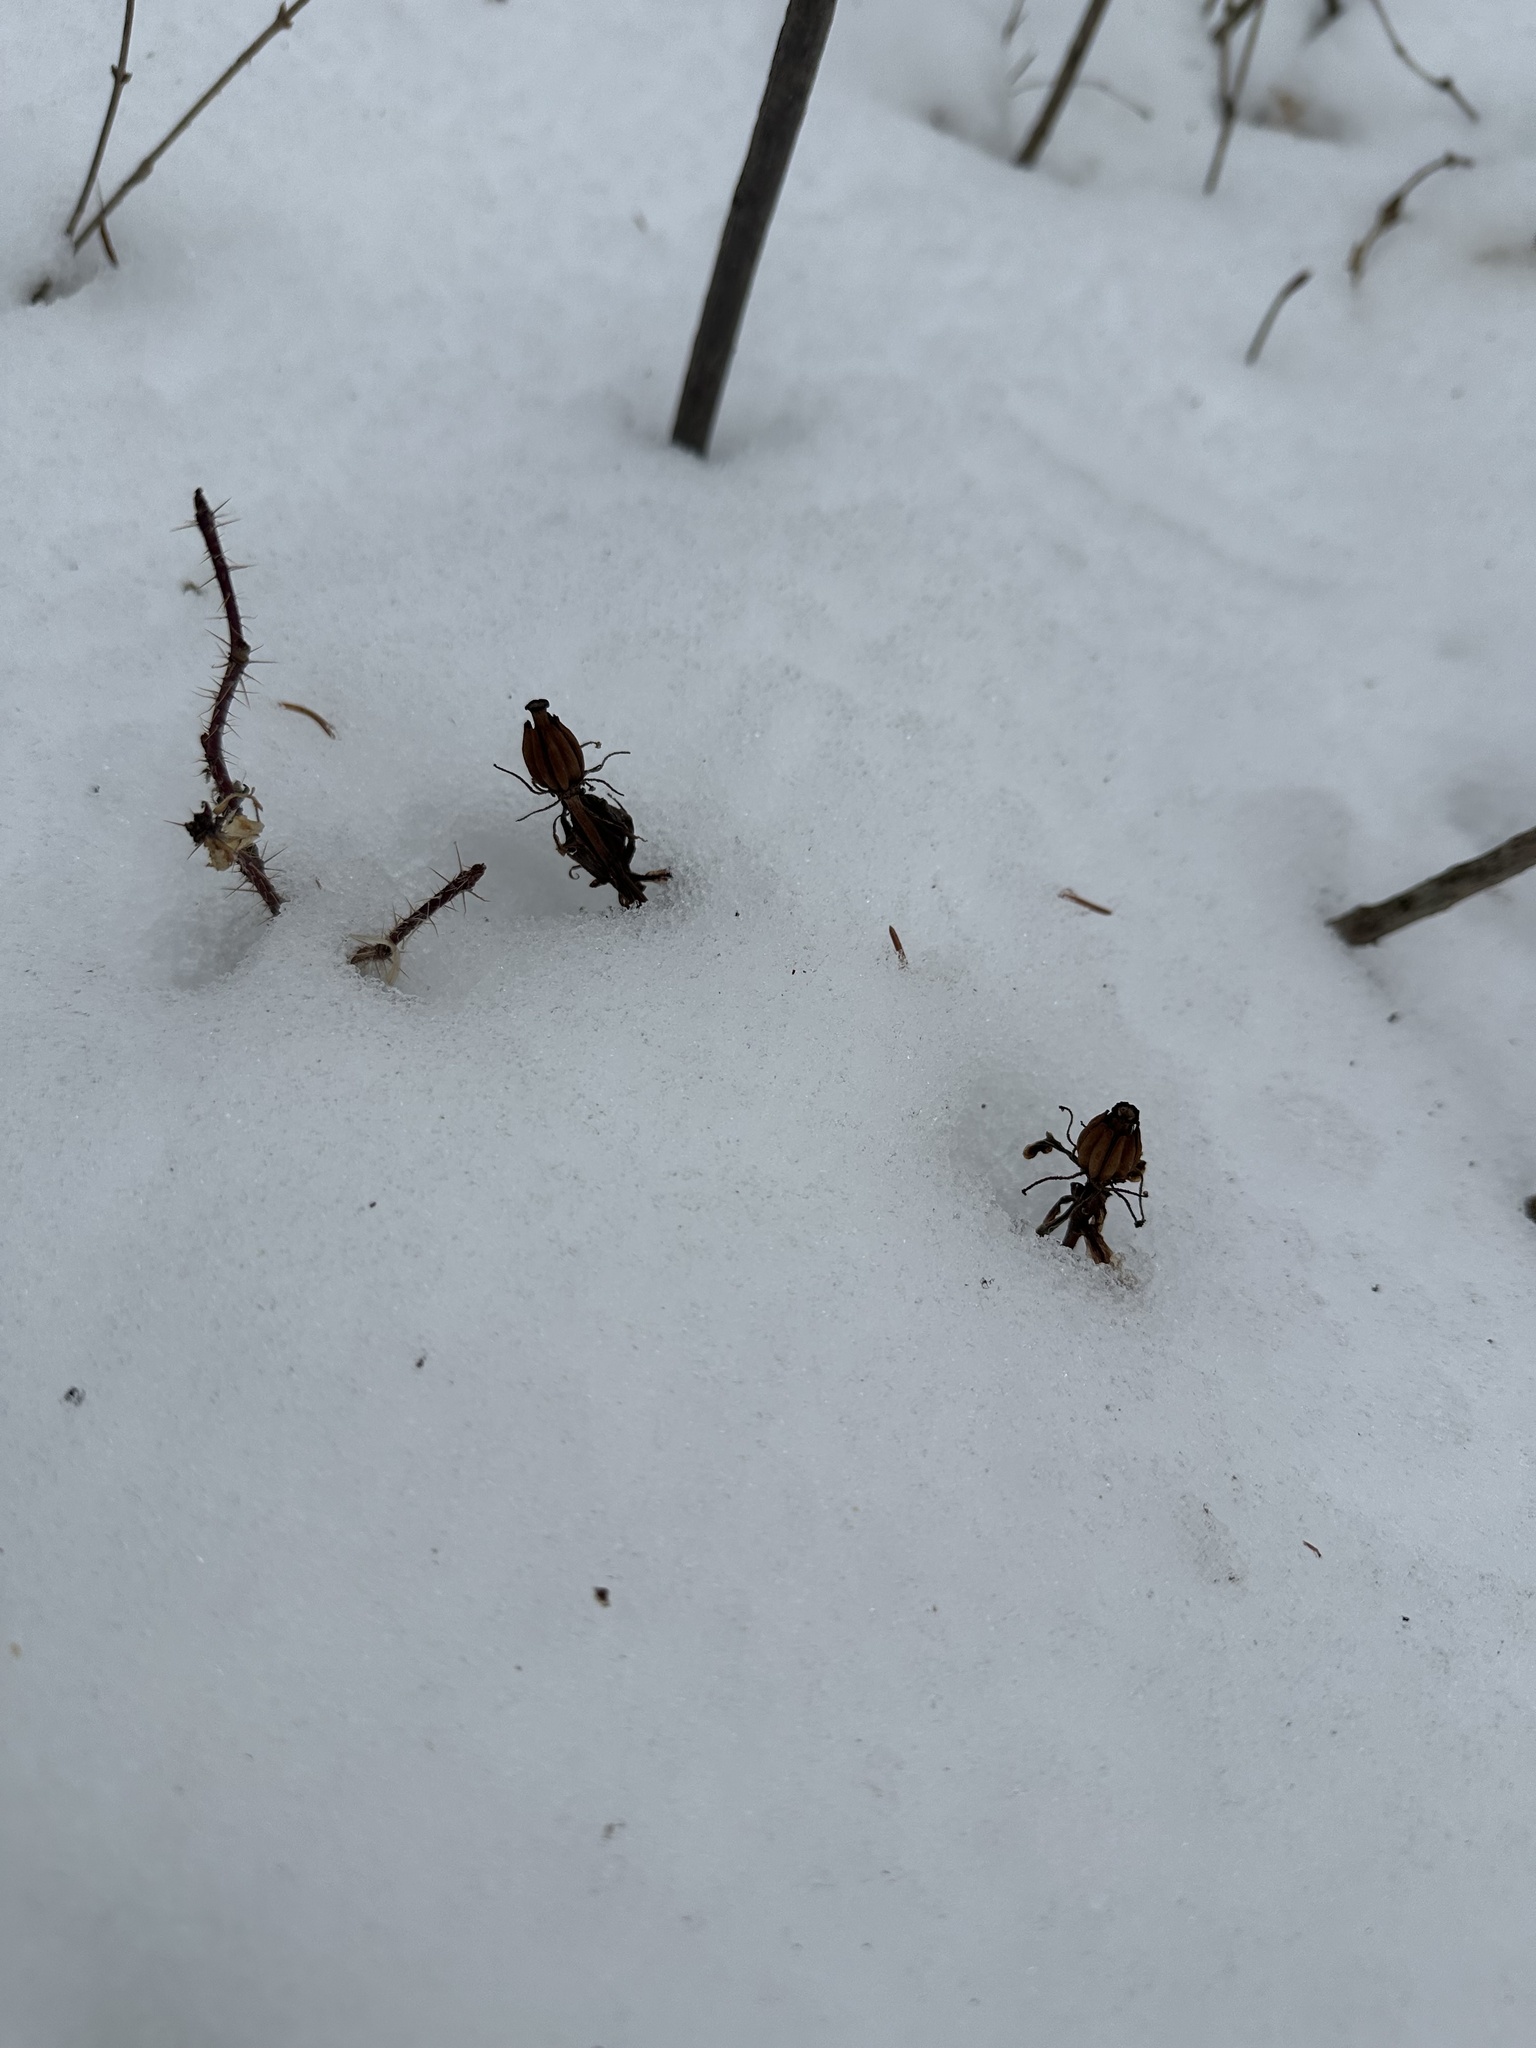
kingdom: Plantae
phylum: Tracheophyta
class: Magnoliopsida
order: Ericales
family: Ericaceae
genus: Monotropa
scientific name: Monotropa uniflora
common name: Convulsion root
